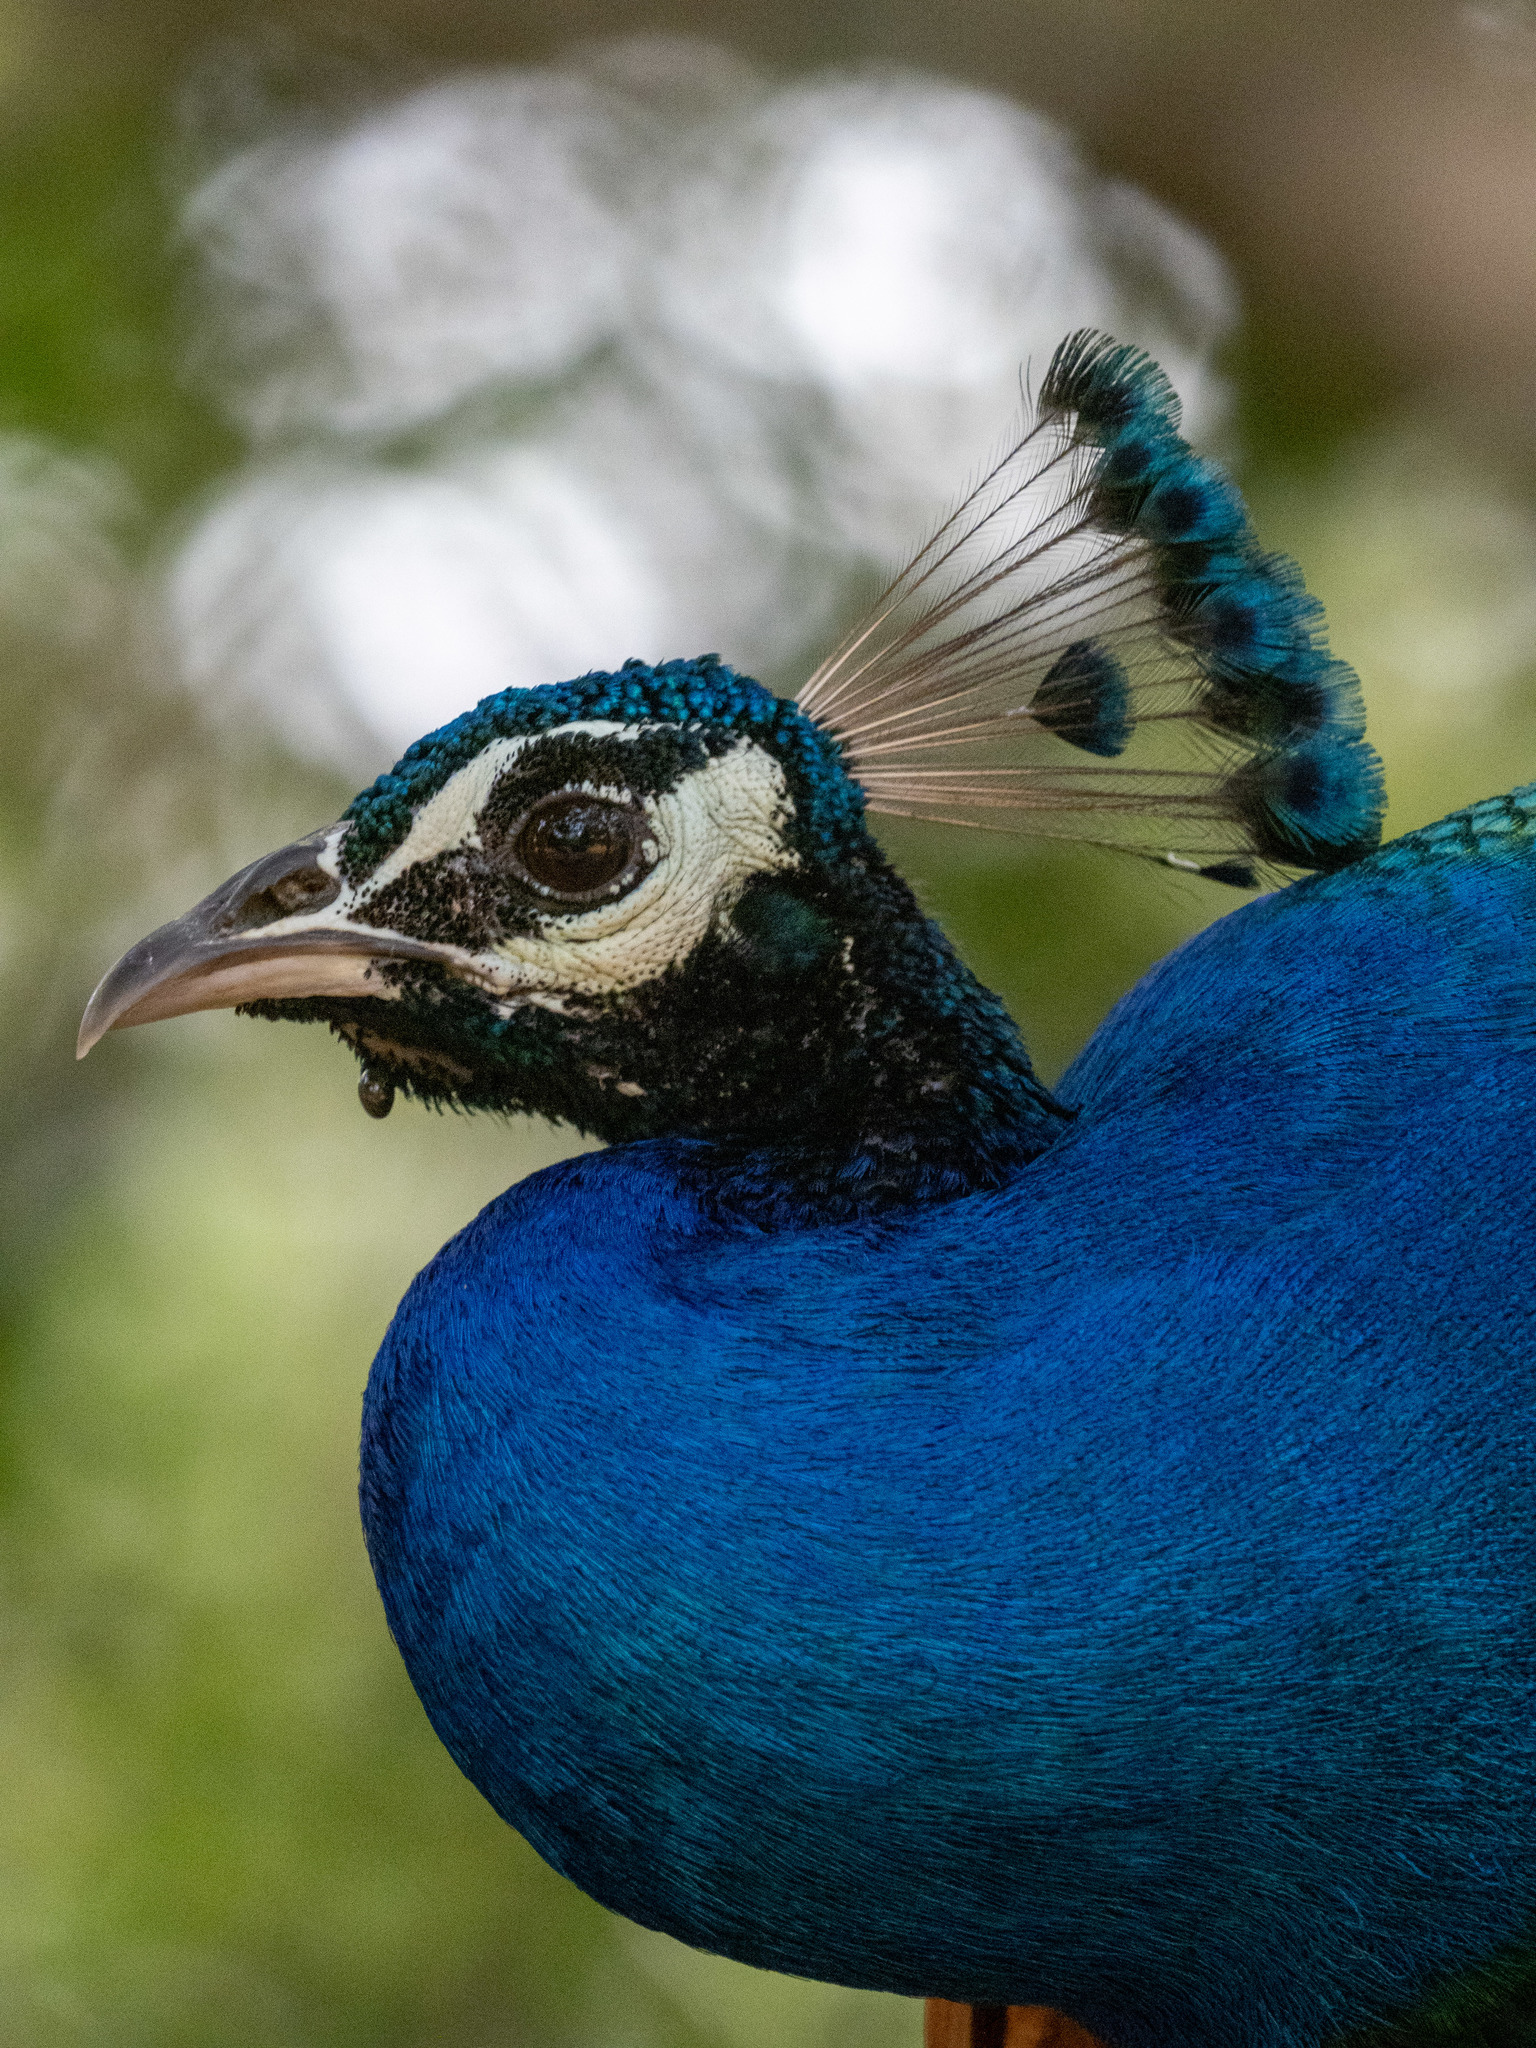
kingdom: Animalia
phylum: Chordata
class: Aves
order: Galliformes
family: Phasianidae
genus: Pavo
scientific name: Pavo cristatus
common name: Indian peafowl
